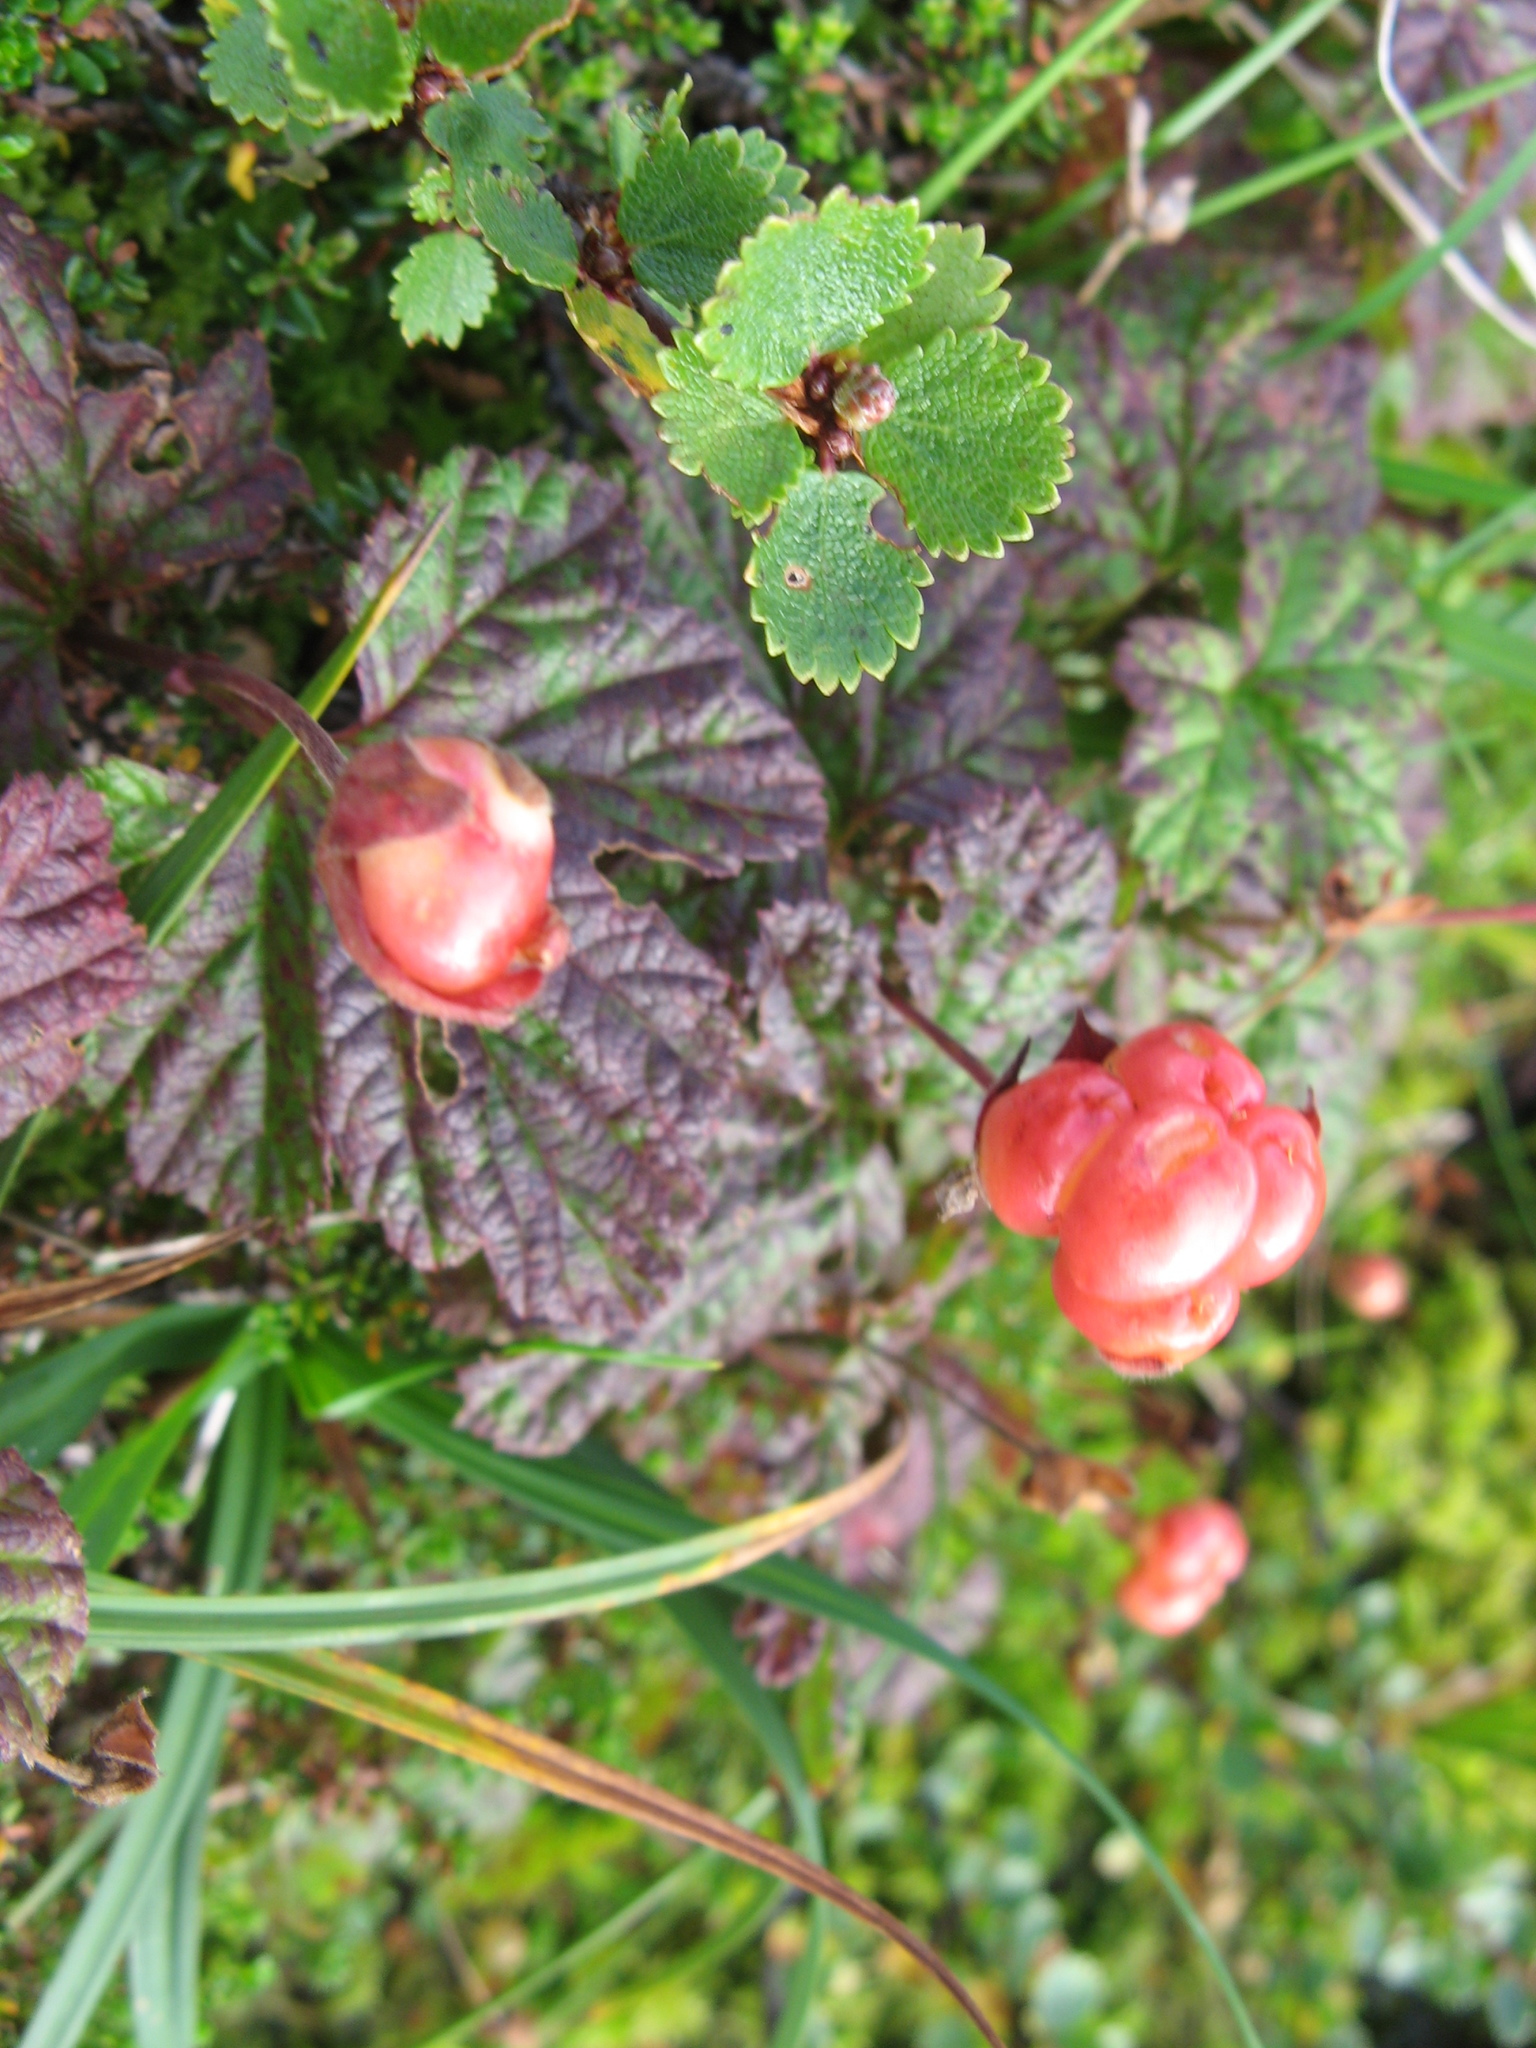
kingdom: Plantae
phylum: Tracheophyta
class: Magnoliopsida
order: Rosales
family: Rosaceae
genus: Rubus
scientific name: Rubus chamaemorus
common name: Cloudberry
